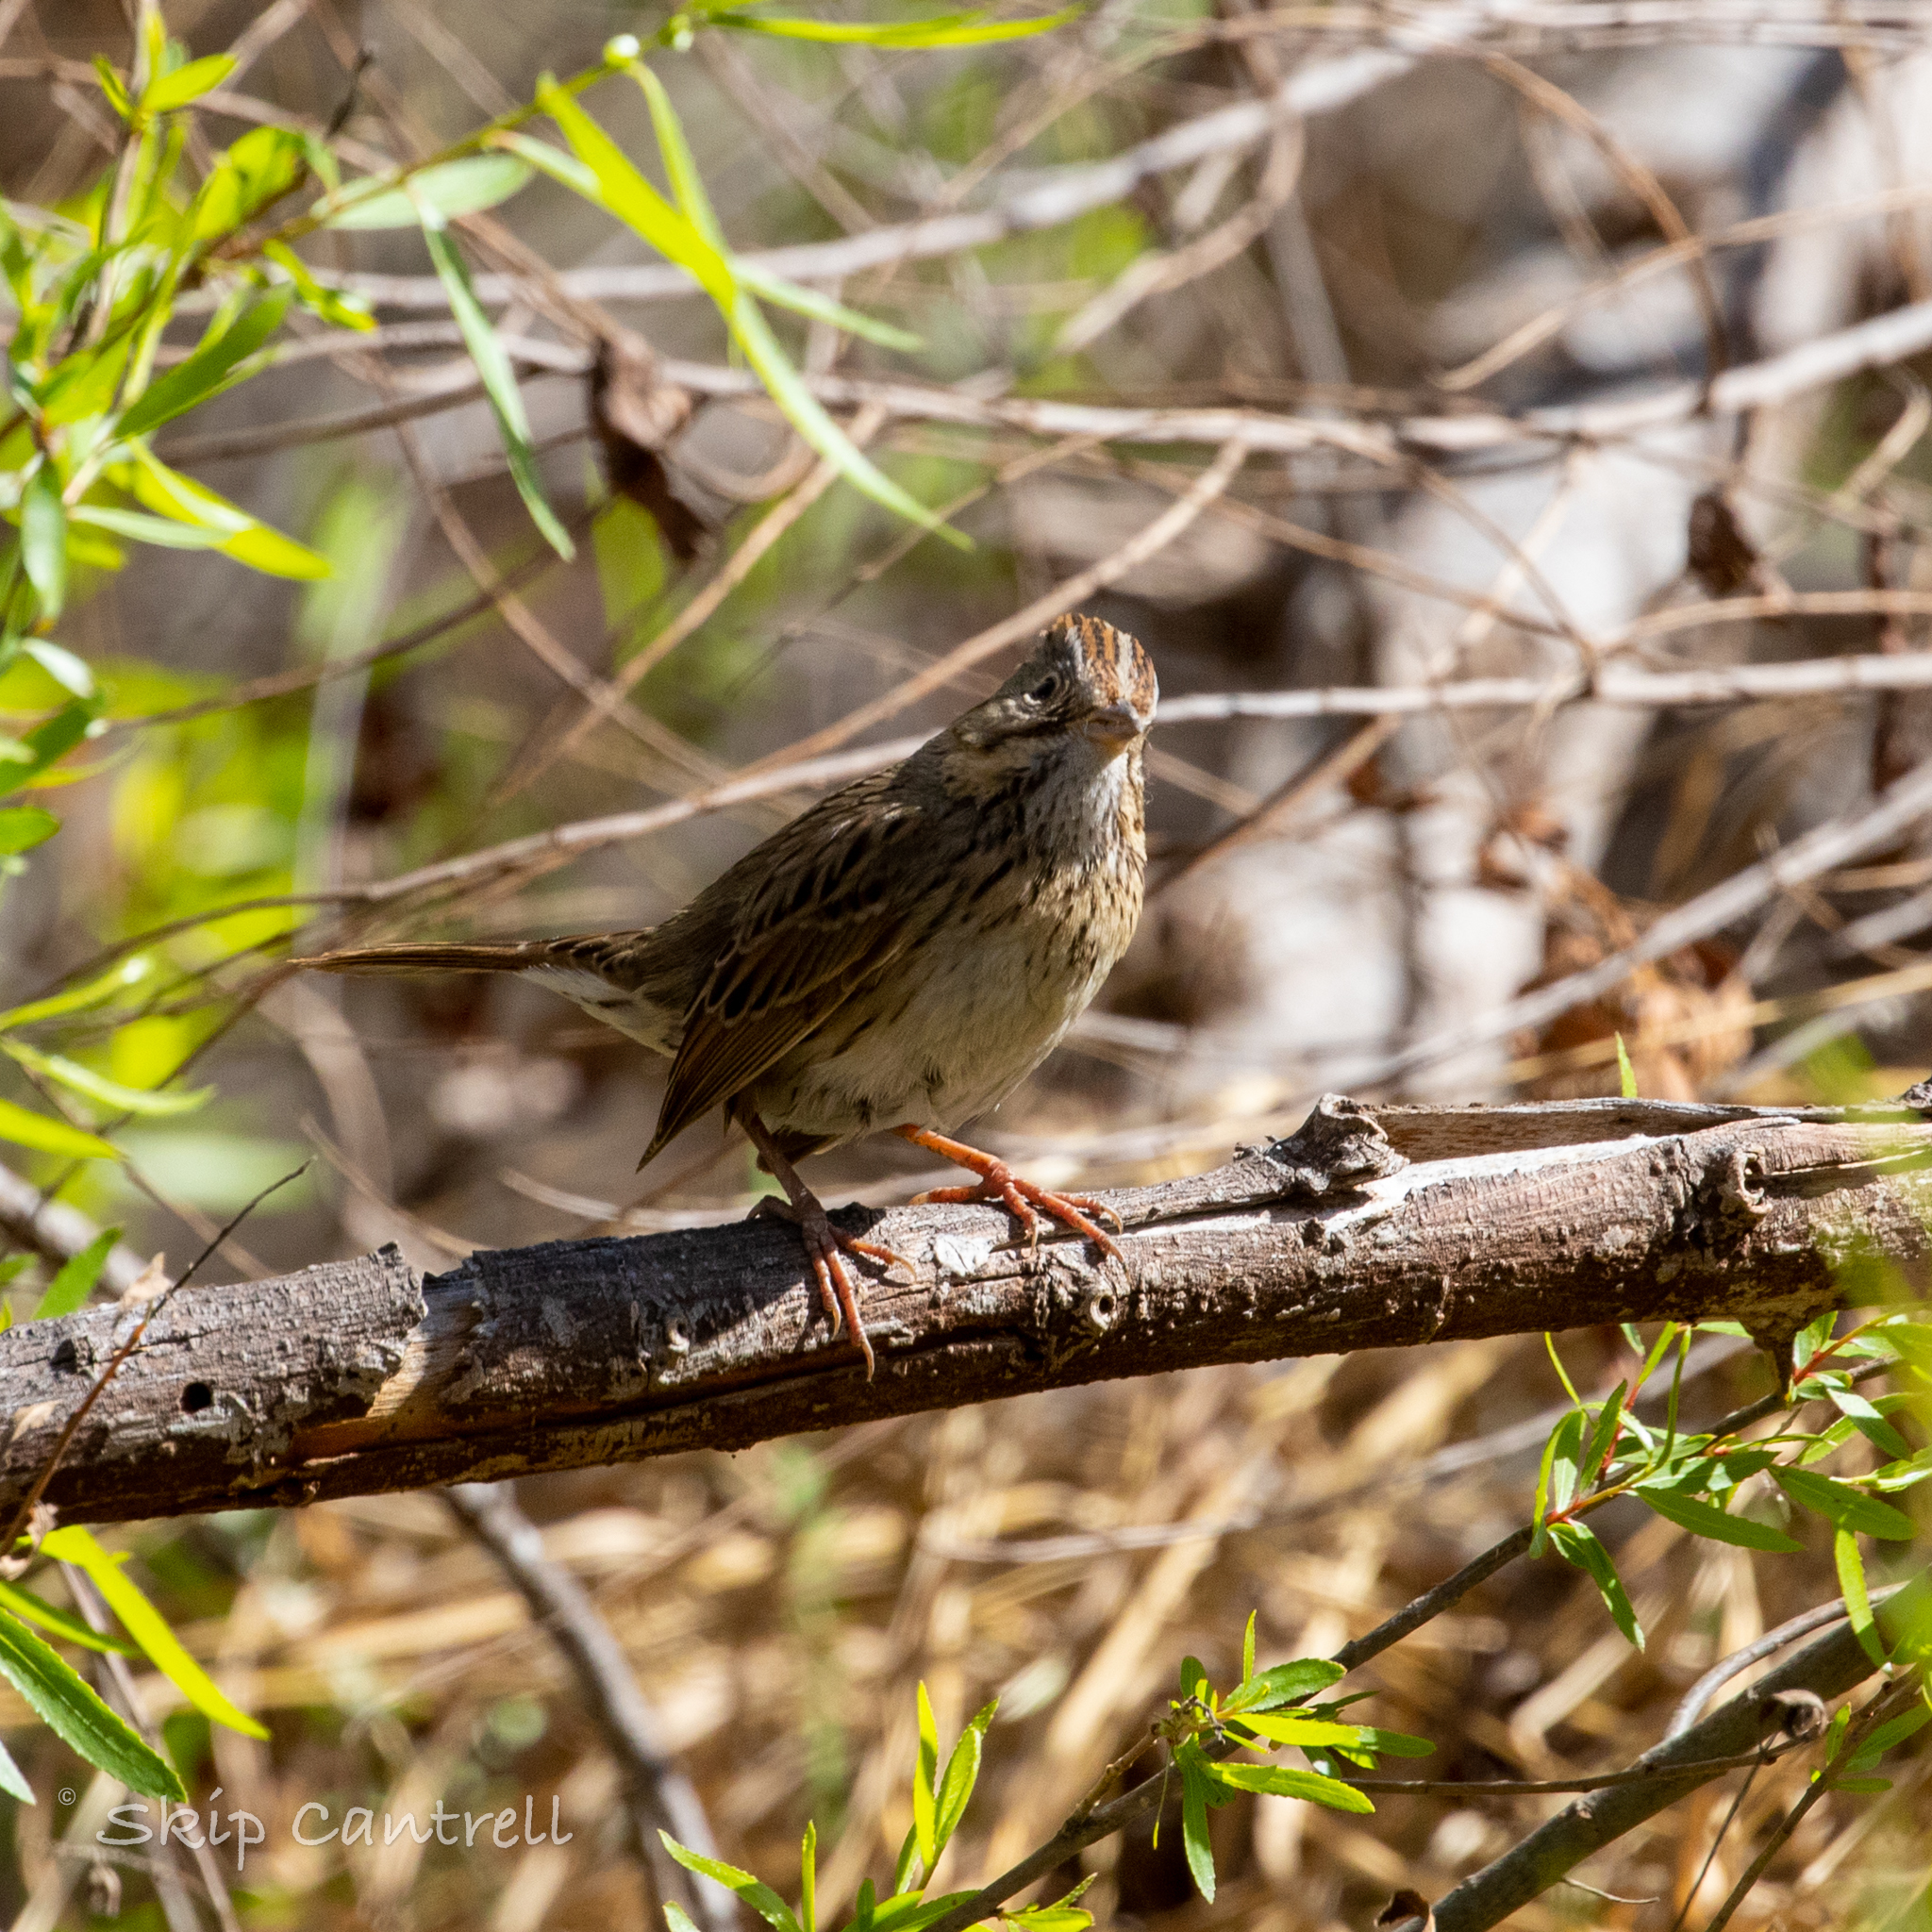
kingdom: Animalia
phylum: Chordata
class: Aves
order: Passeriformes
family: Passerellidae
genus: Melospiza
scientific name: Melospiza lincolnii
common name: Lincoln's sparrow
